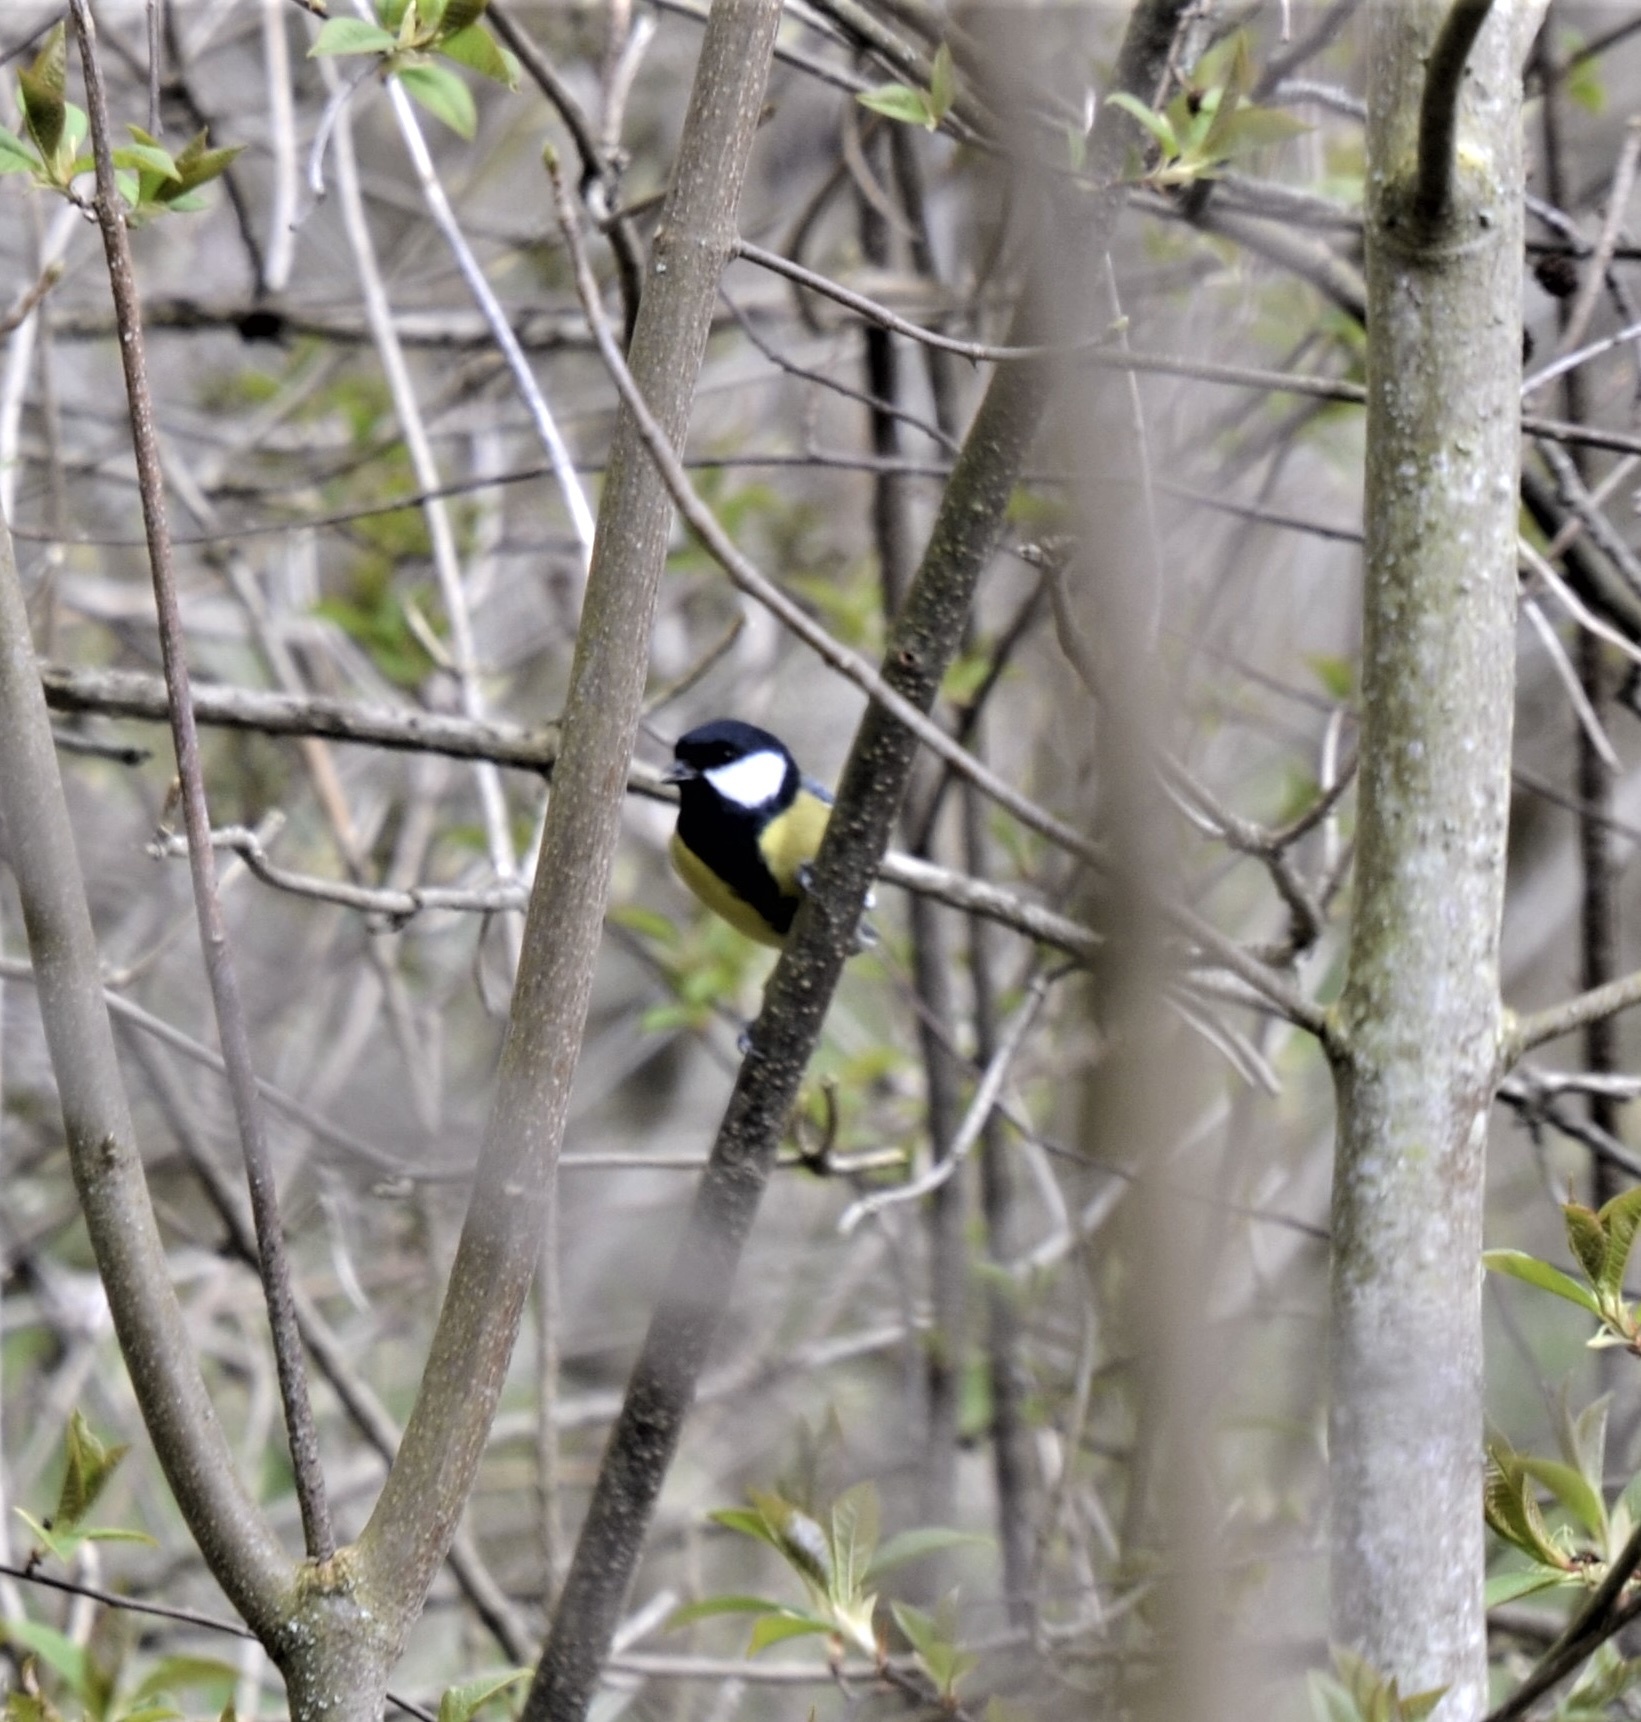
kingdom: Animalia
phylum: Chordata
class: Aves
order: Passeriformes
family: Paridae
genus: Parus
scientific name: Parus major
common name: Great tit
